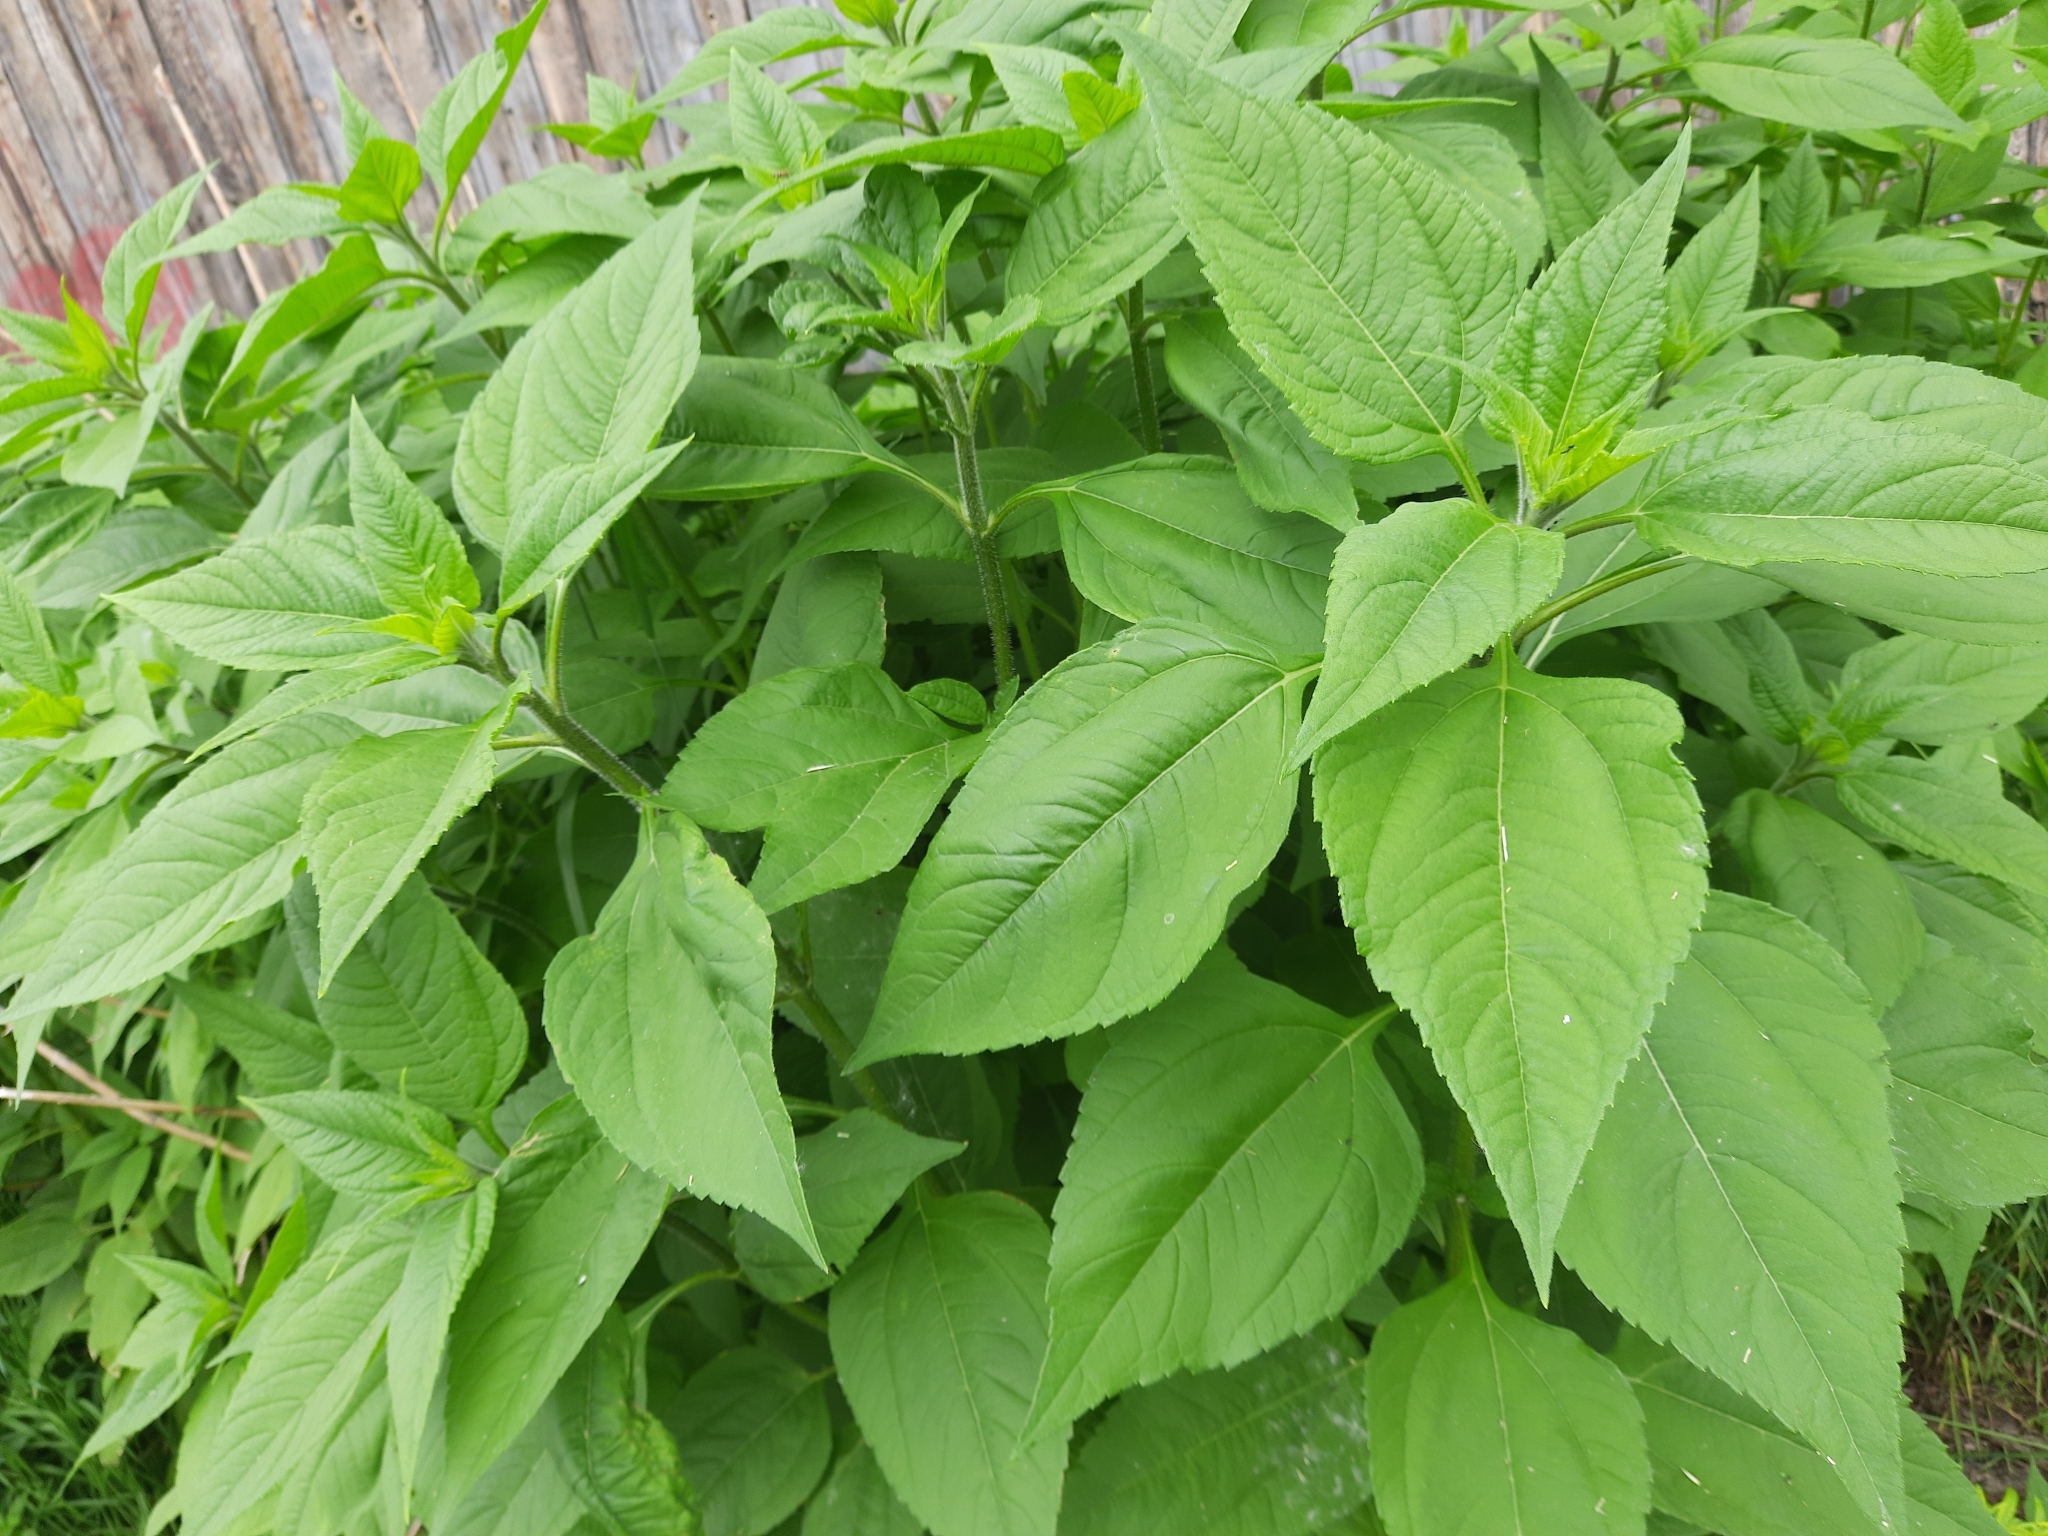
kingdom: Plantae
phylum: Tracheophyta
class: Magnoliopsida
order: Asterales
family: Asteraceae
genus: Helianthus
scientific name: Helianthus tuberosus
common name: Jerusalem artichoke
